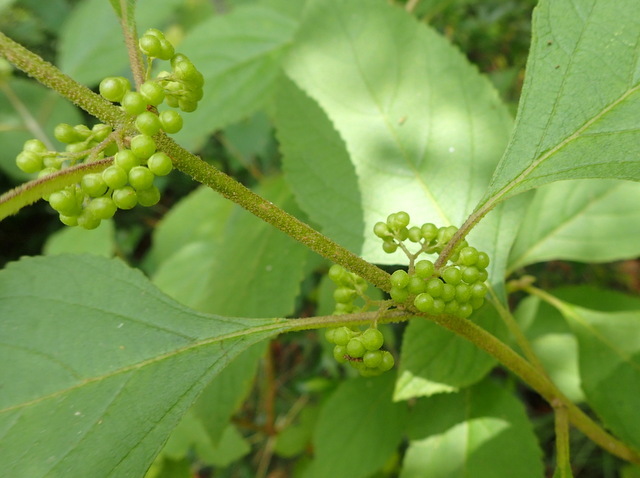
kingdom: Plantae
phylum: Tracheophyta
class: Magnoliopsida
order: Lamiales
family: Lamiaceae
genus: Callicarpa
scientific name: Callicarpa americana
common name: American beautyberry
